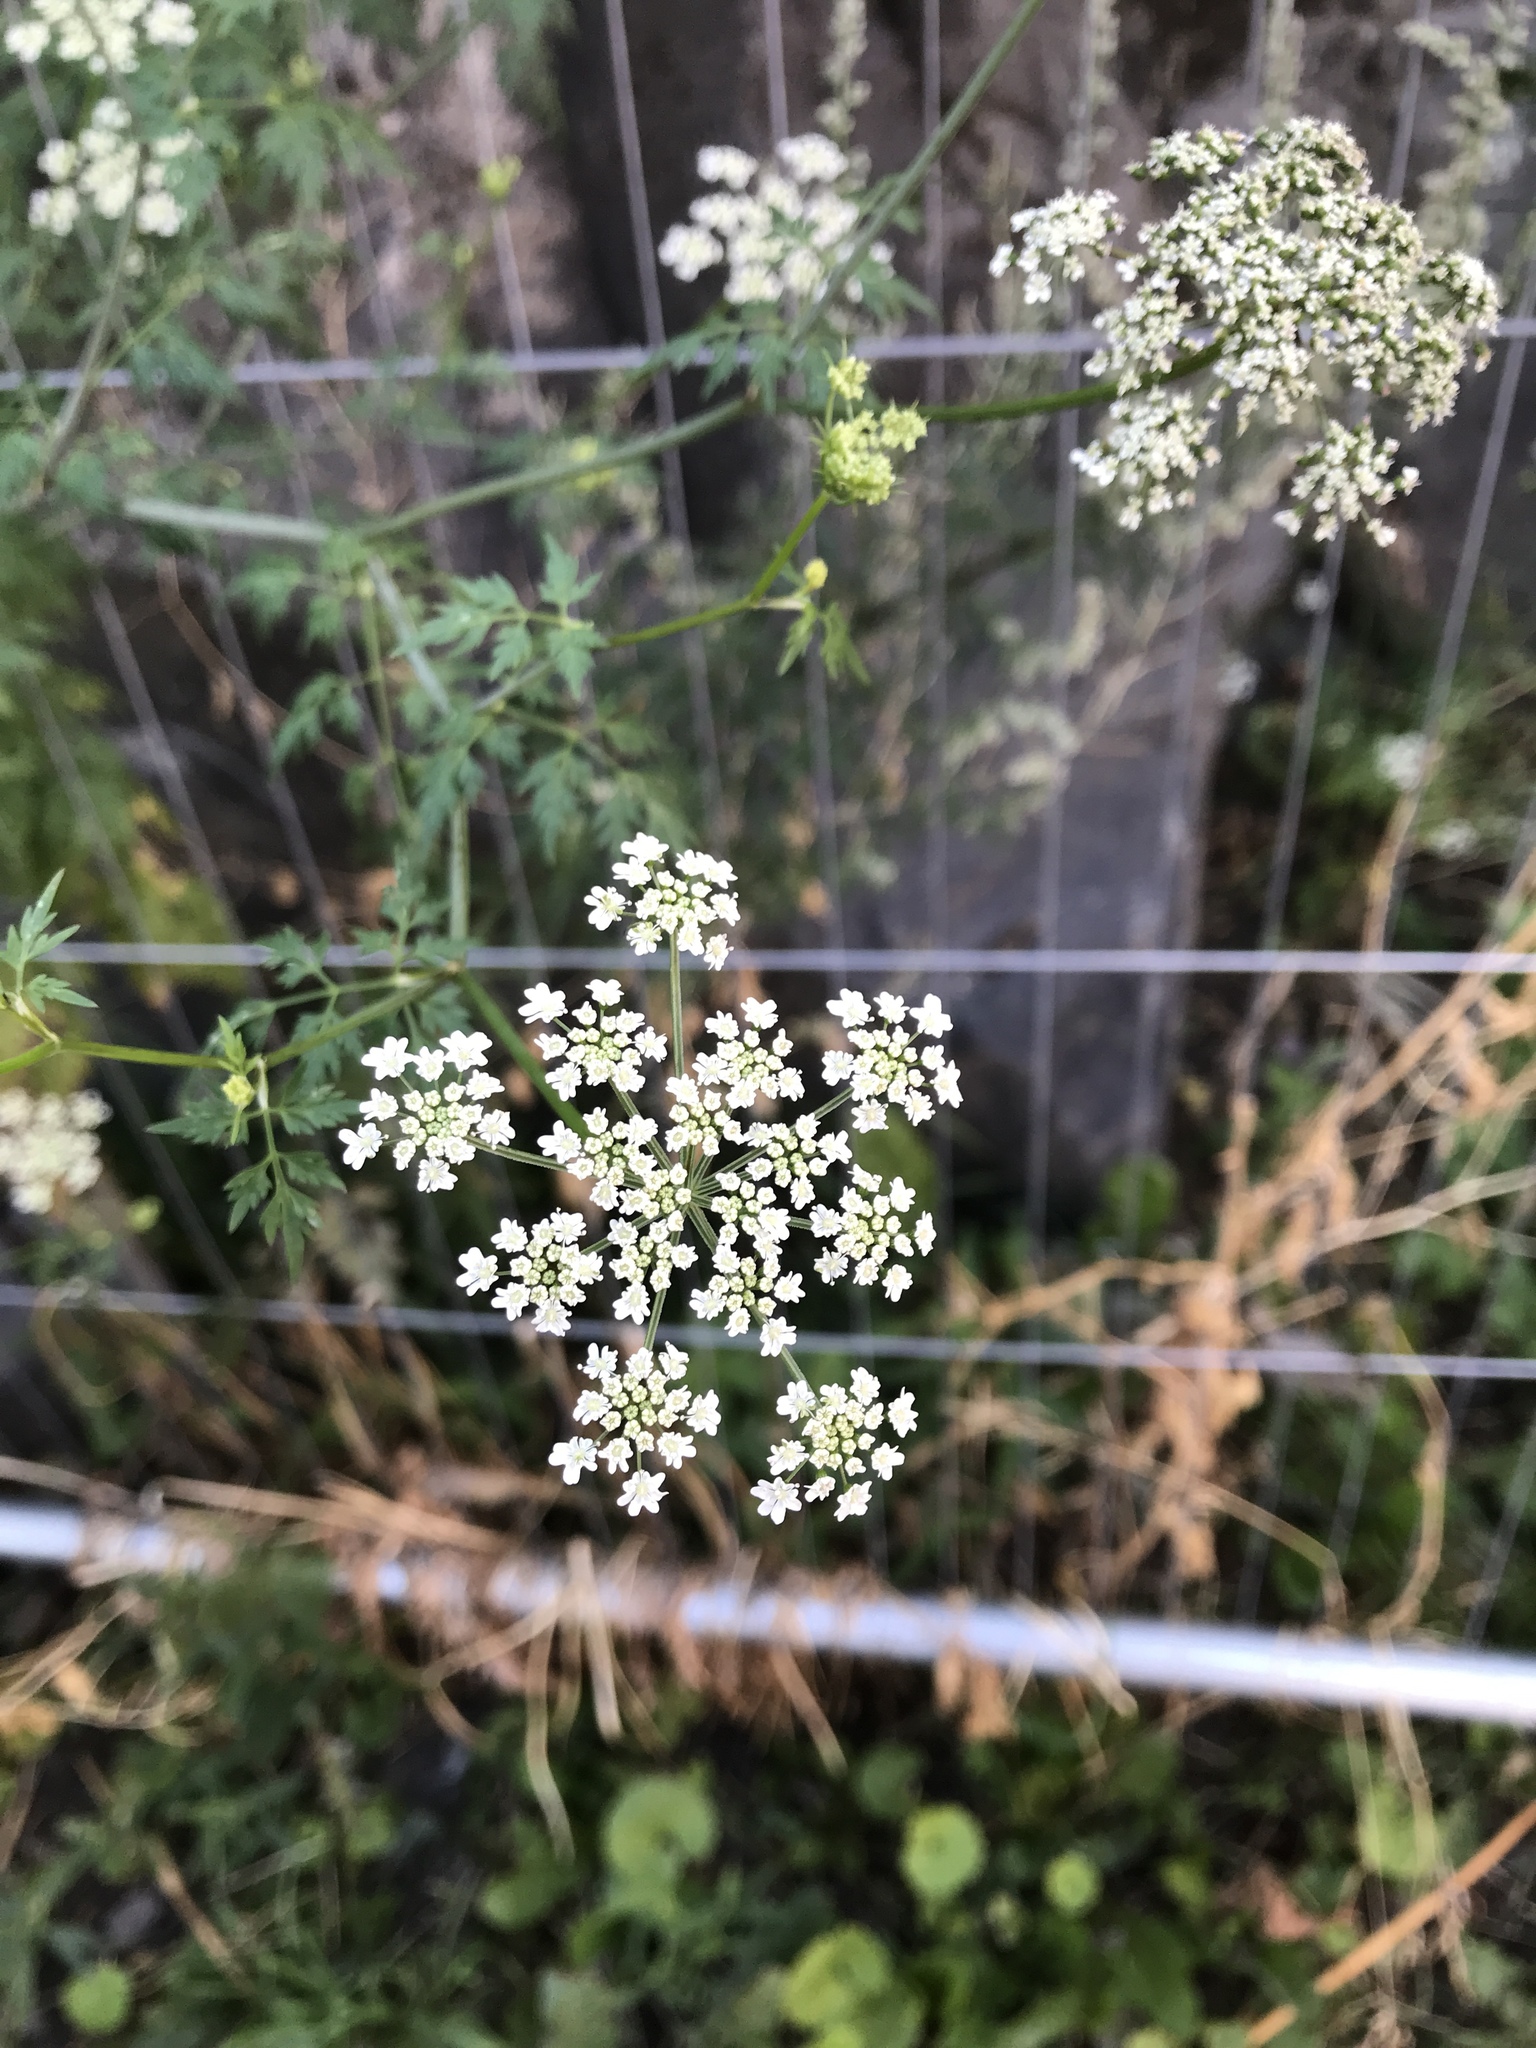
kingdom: Plantae
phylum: Tracheophyta
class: Magnoliopsida
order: Apiales
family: Apiaceae
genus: Aethusa
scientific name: Aethusa cynapium
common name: Fool's parsley
